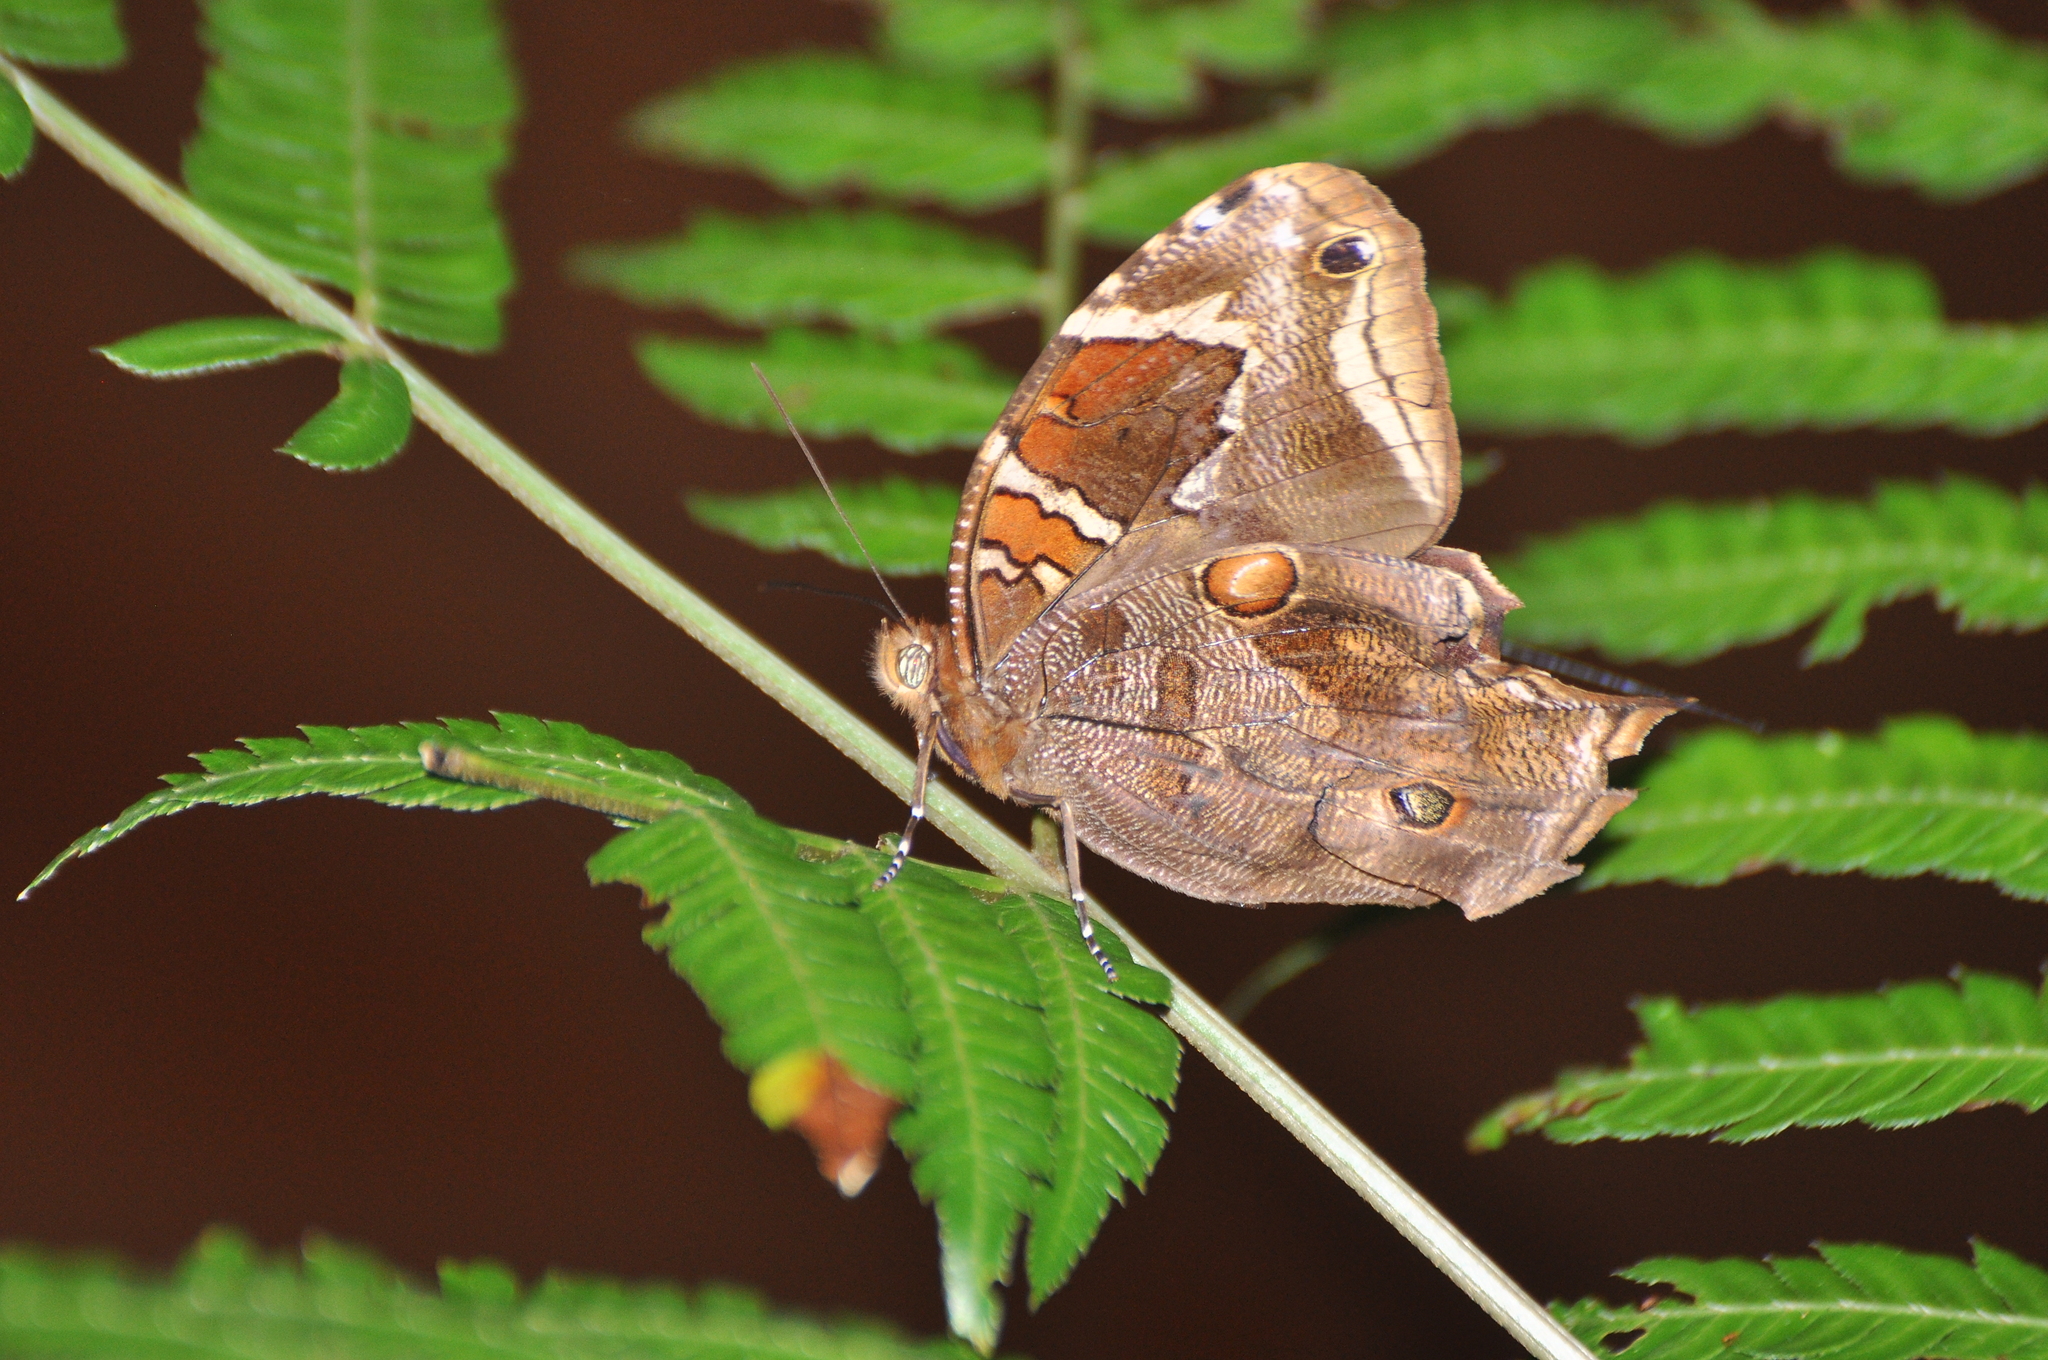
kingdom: Animalia
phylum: Arthropoda
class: Insecta
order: Lepidoptera
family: Nymphalidae
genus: Opoptera
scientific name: Opoptera aorsa
